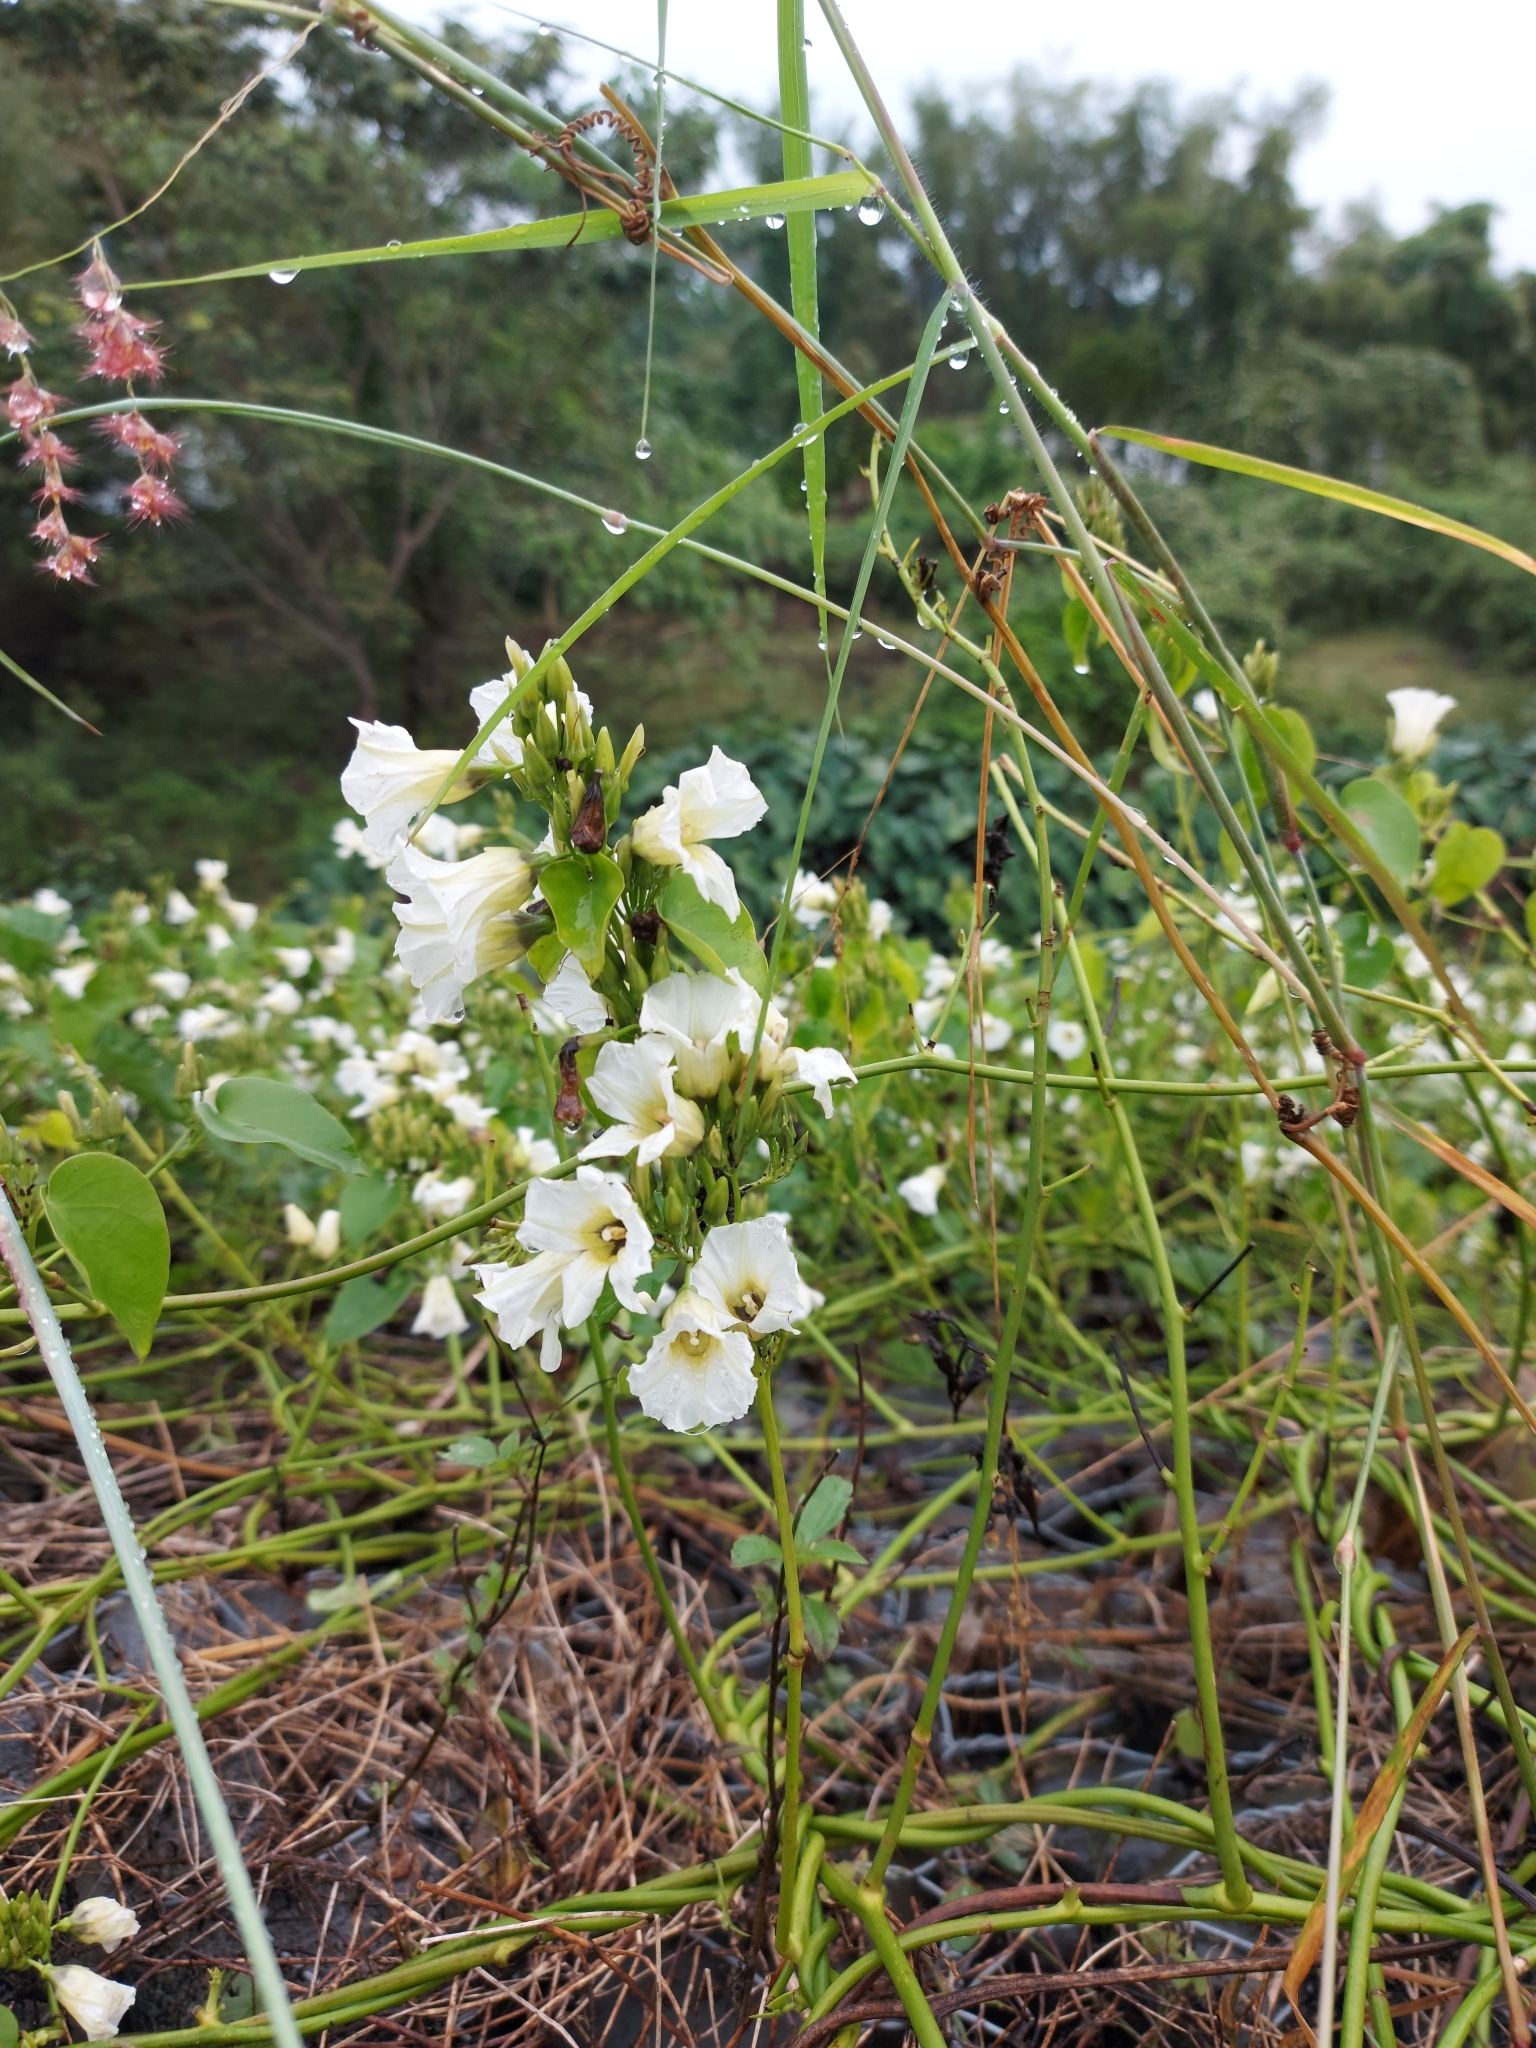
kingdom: Plantae
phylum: Tracheophyta
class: Magnoliopsida
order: Solanales
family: Convolvulaceae
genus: Ipomoea
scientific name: Ipomoea corymbosa
